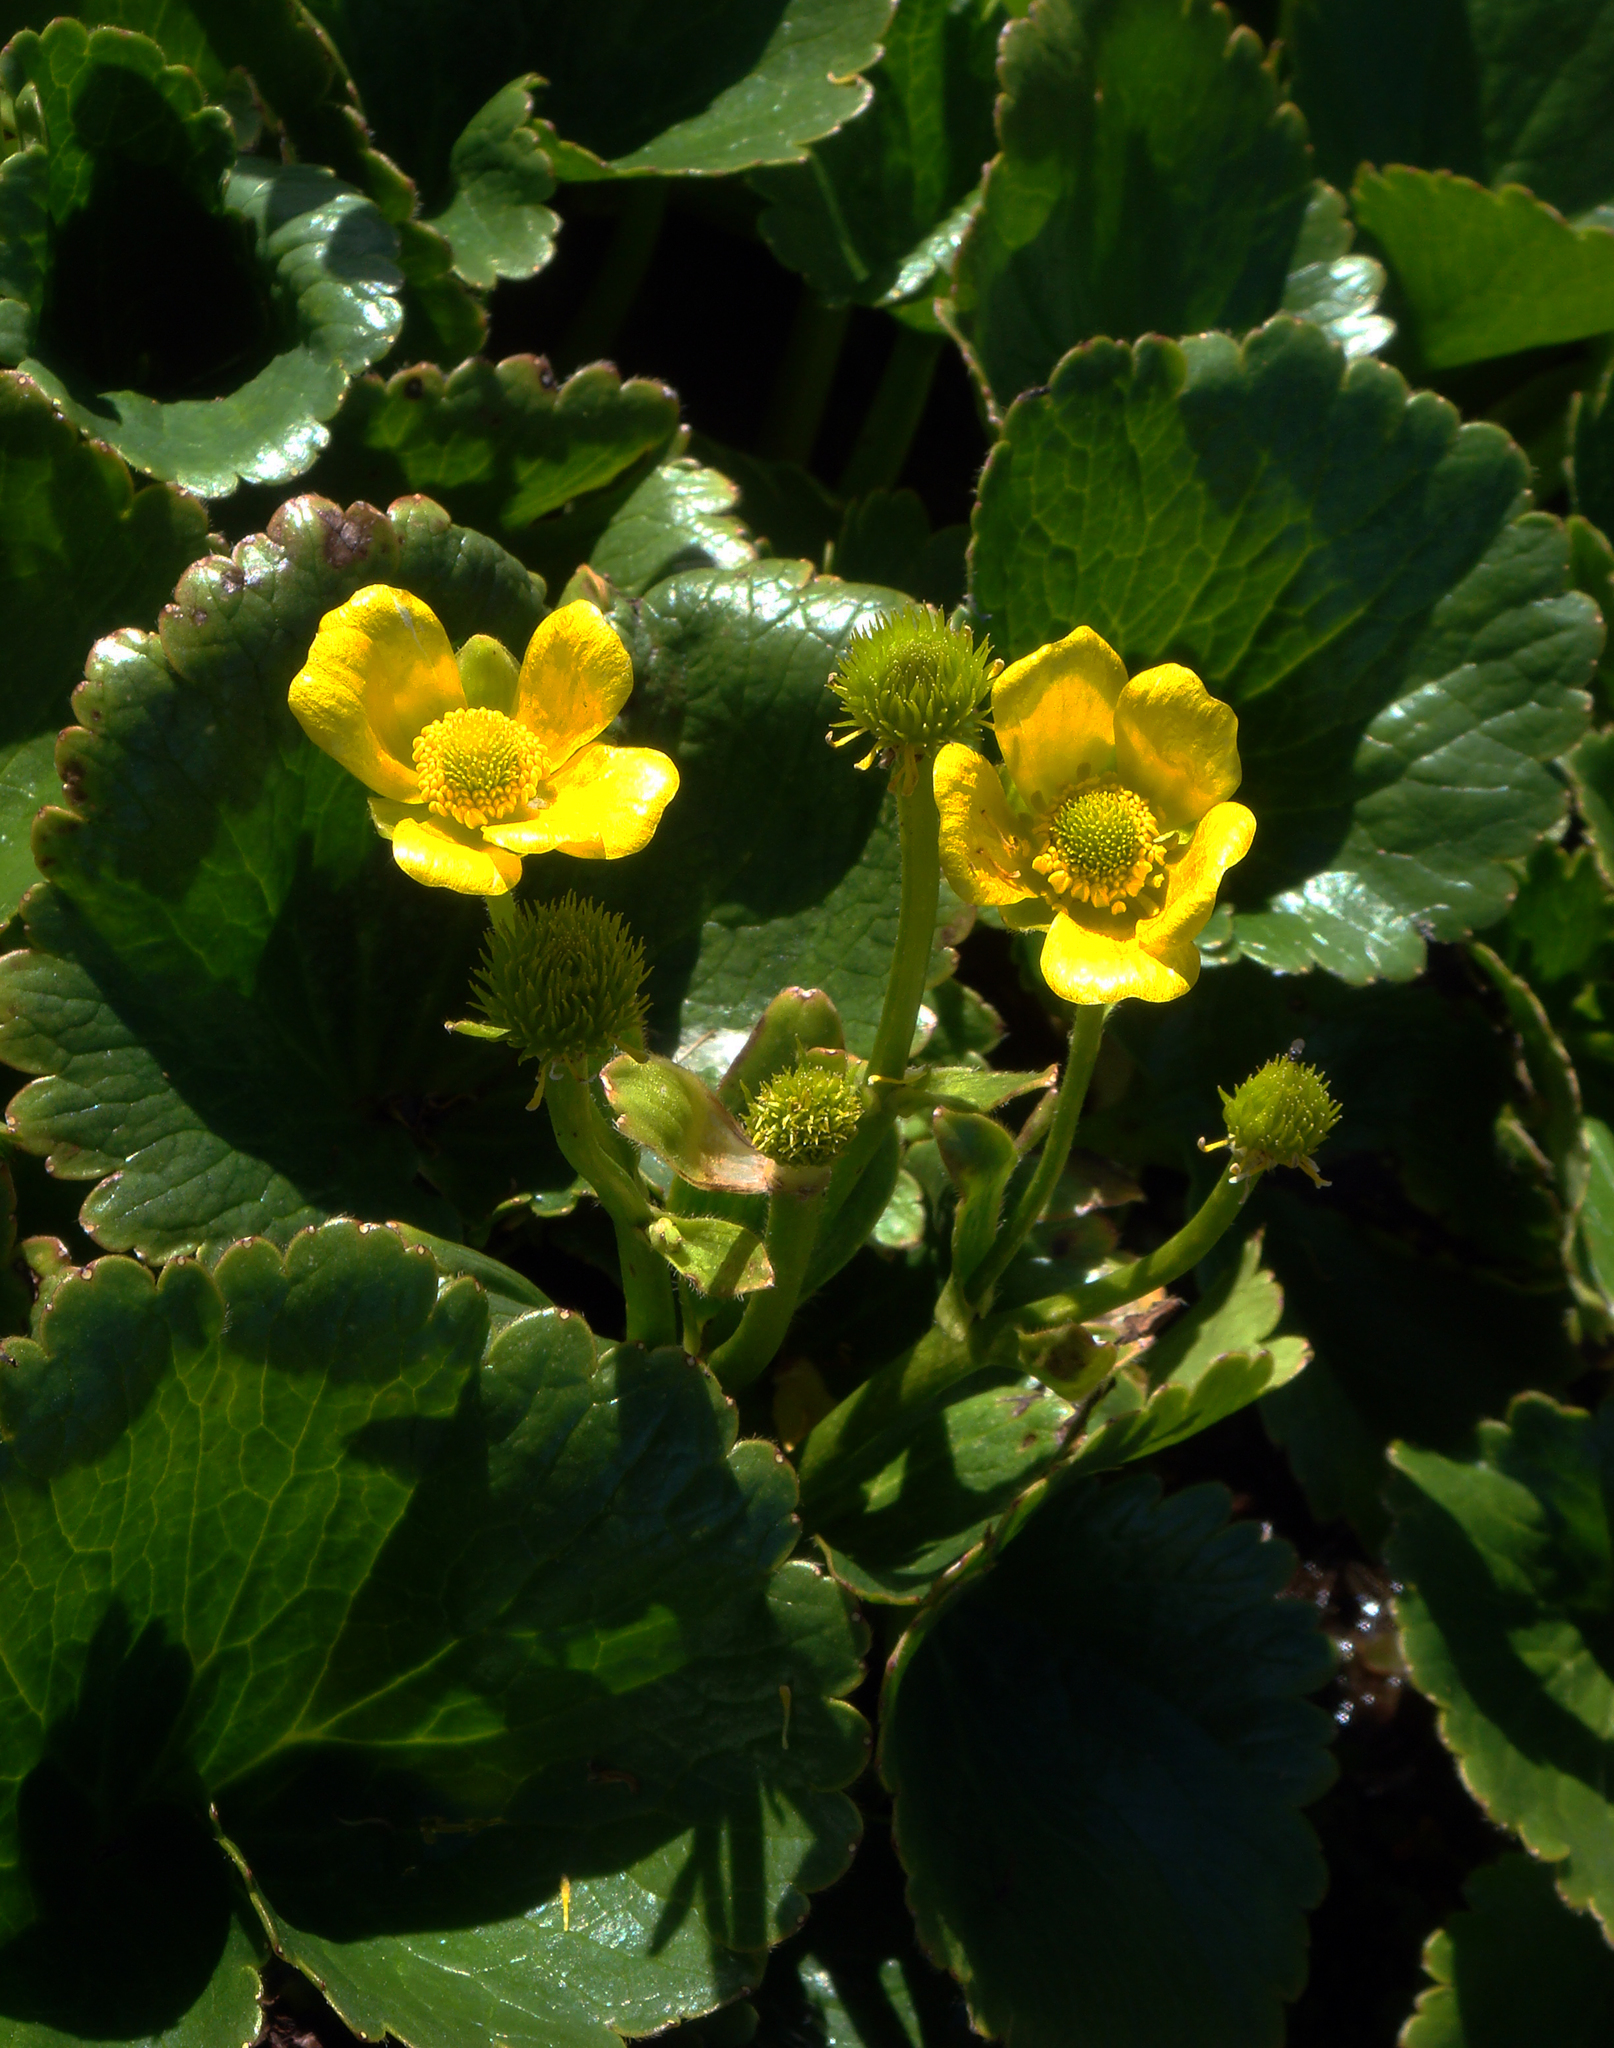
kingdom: Plantae
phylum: Tracheophyta
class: Magnoliopsida
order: Ranunculales
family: Ranunculaceae
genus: Ranunculus
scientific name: Ranunculus insignis
